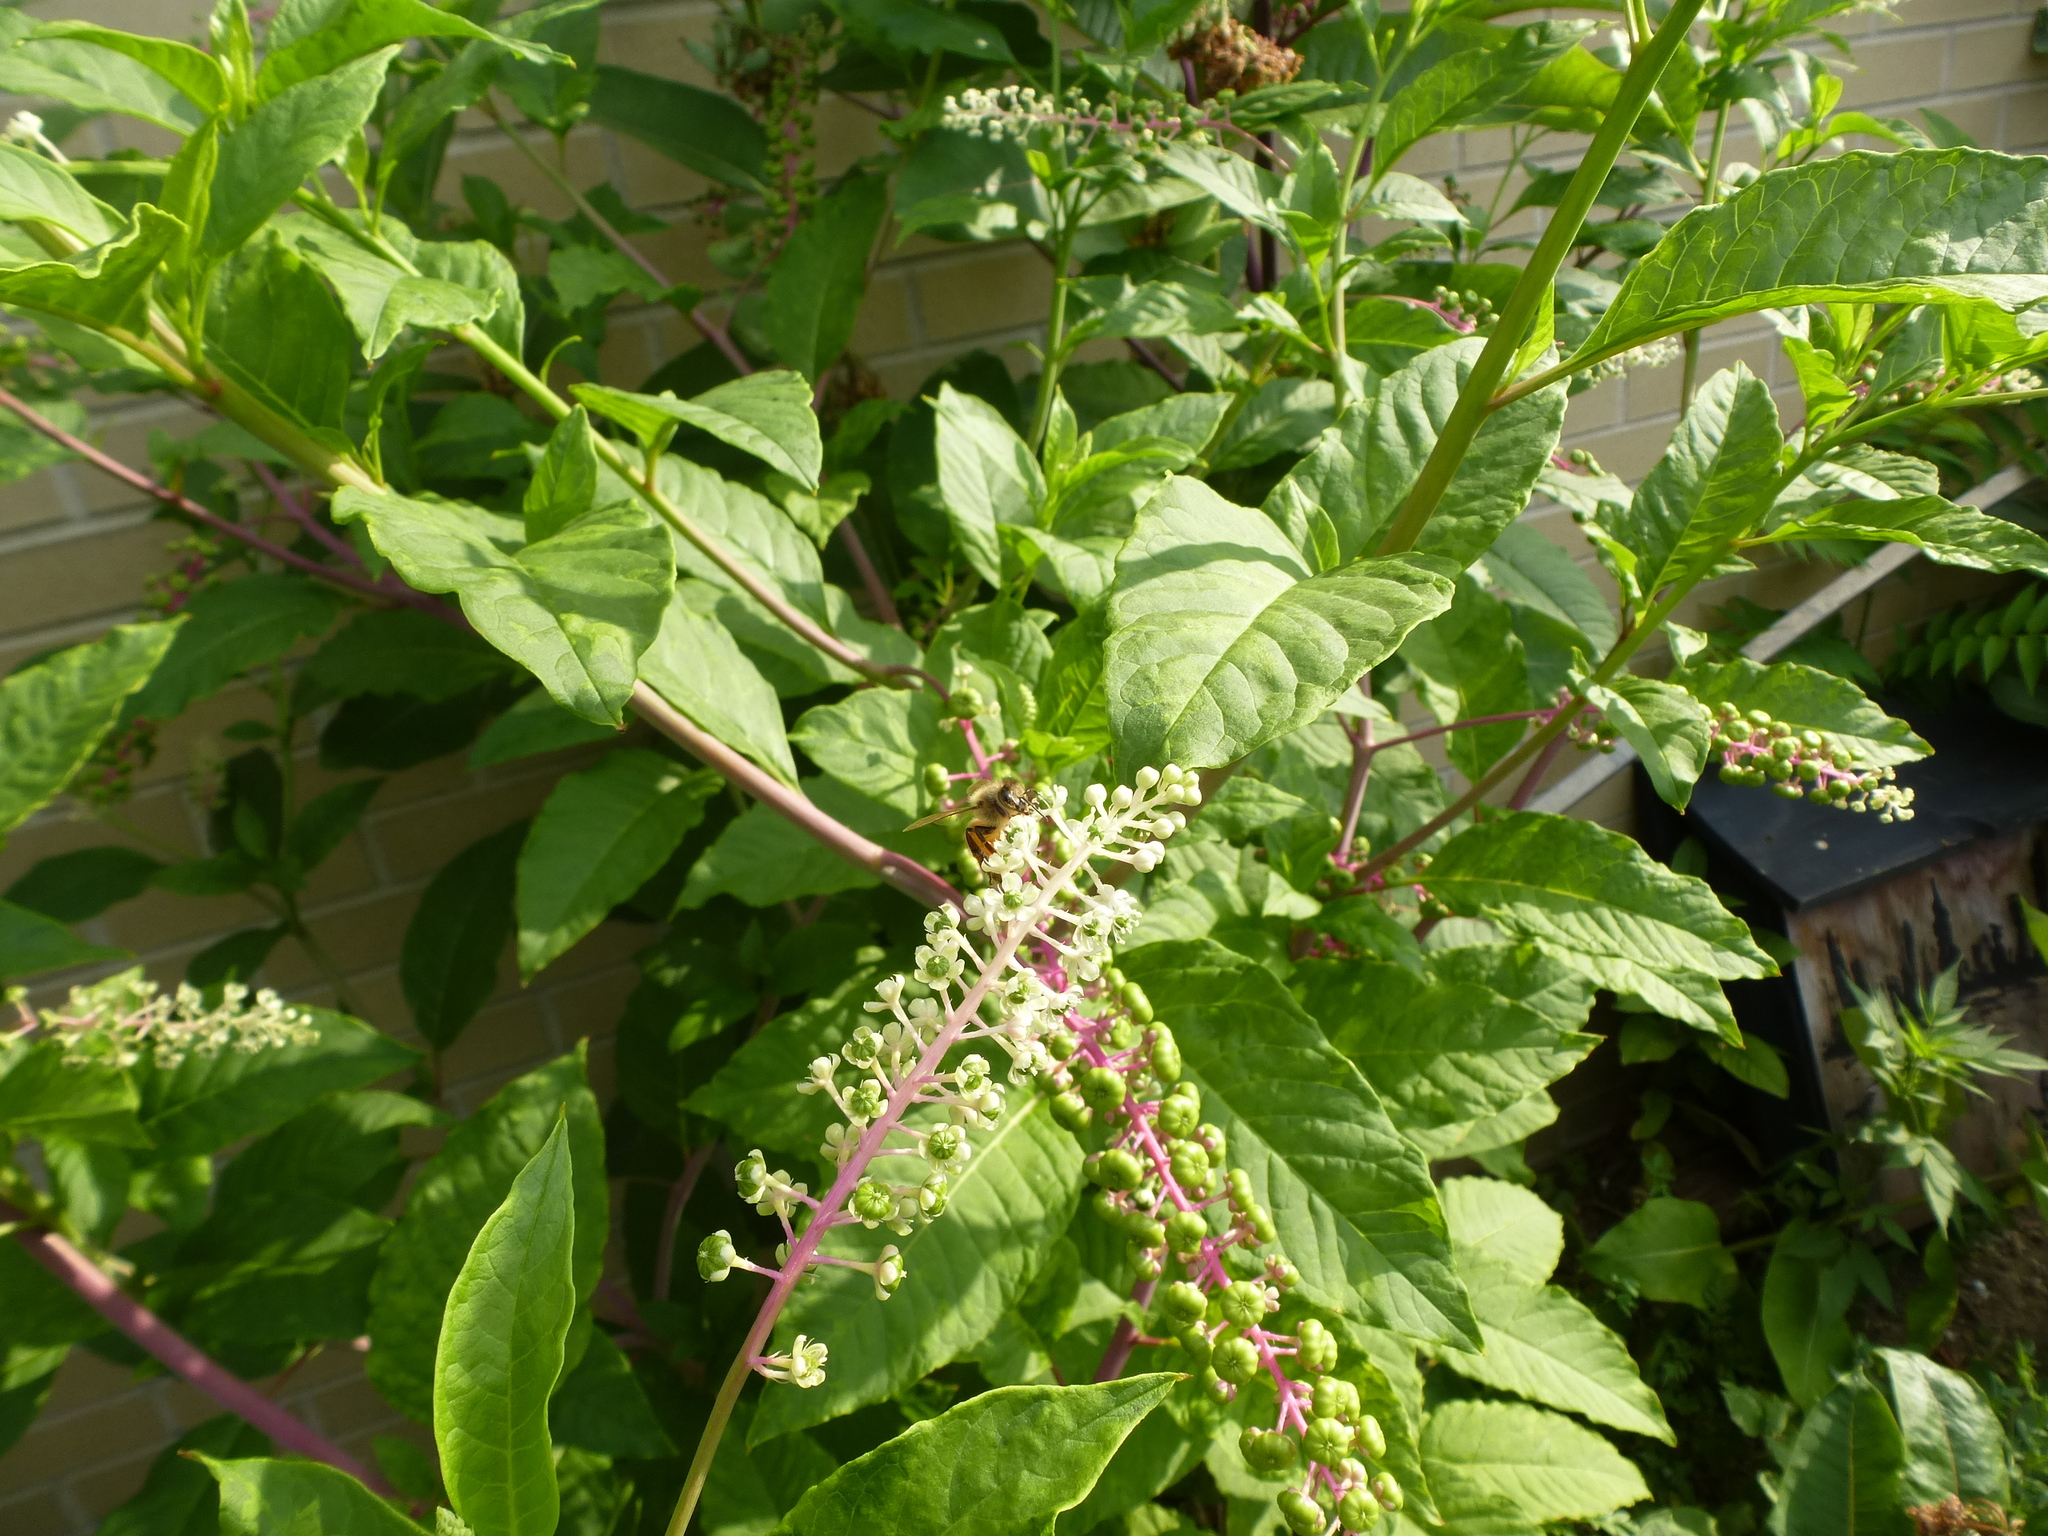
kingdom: Animalia
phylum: Arthropoda
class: Insecta
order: Hymenoptera
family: Apidae
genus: Apis
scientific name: Apis mellifera
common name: Honey bee
